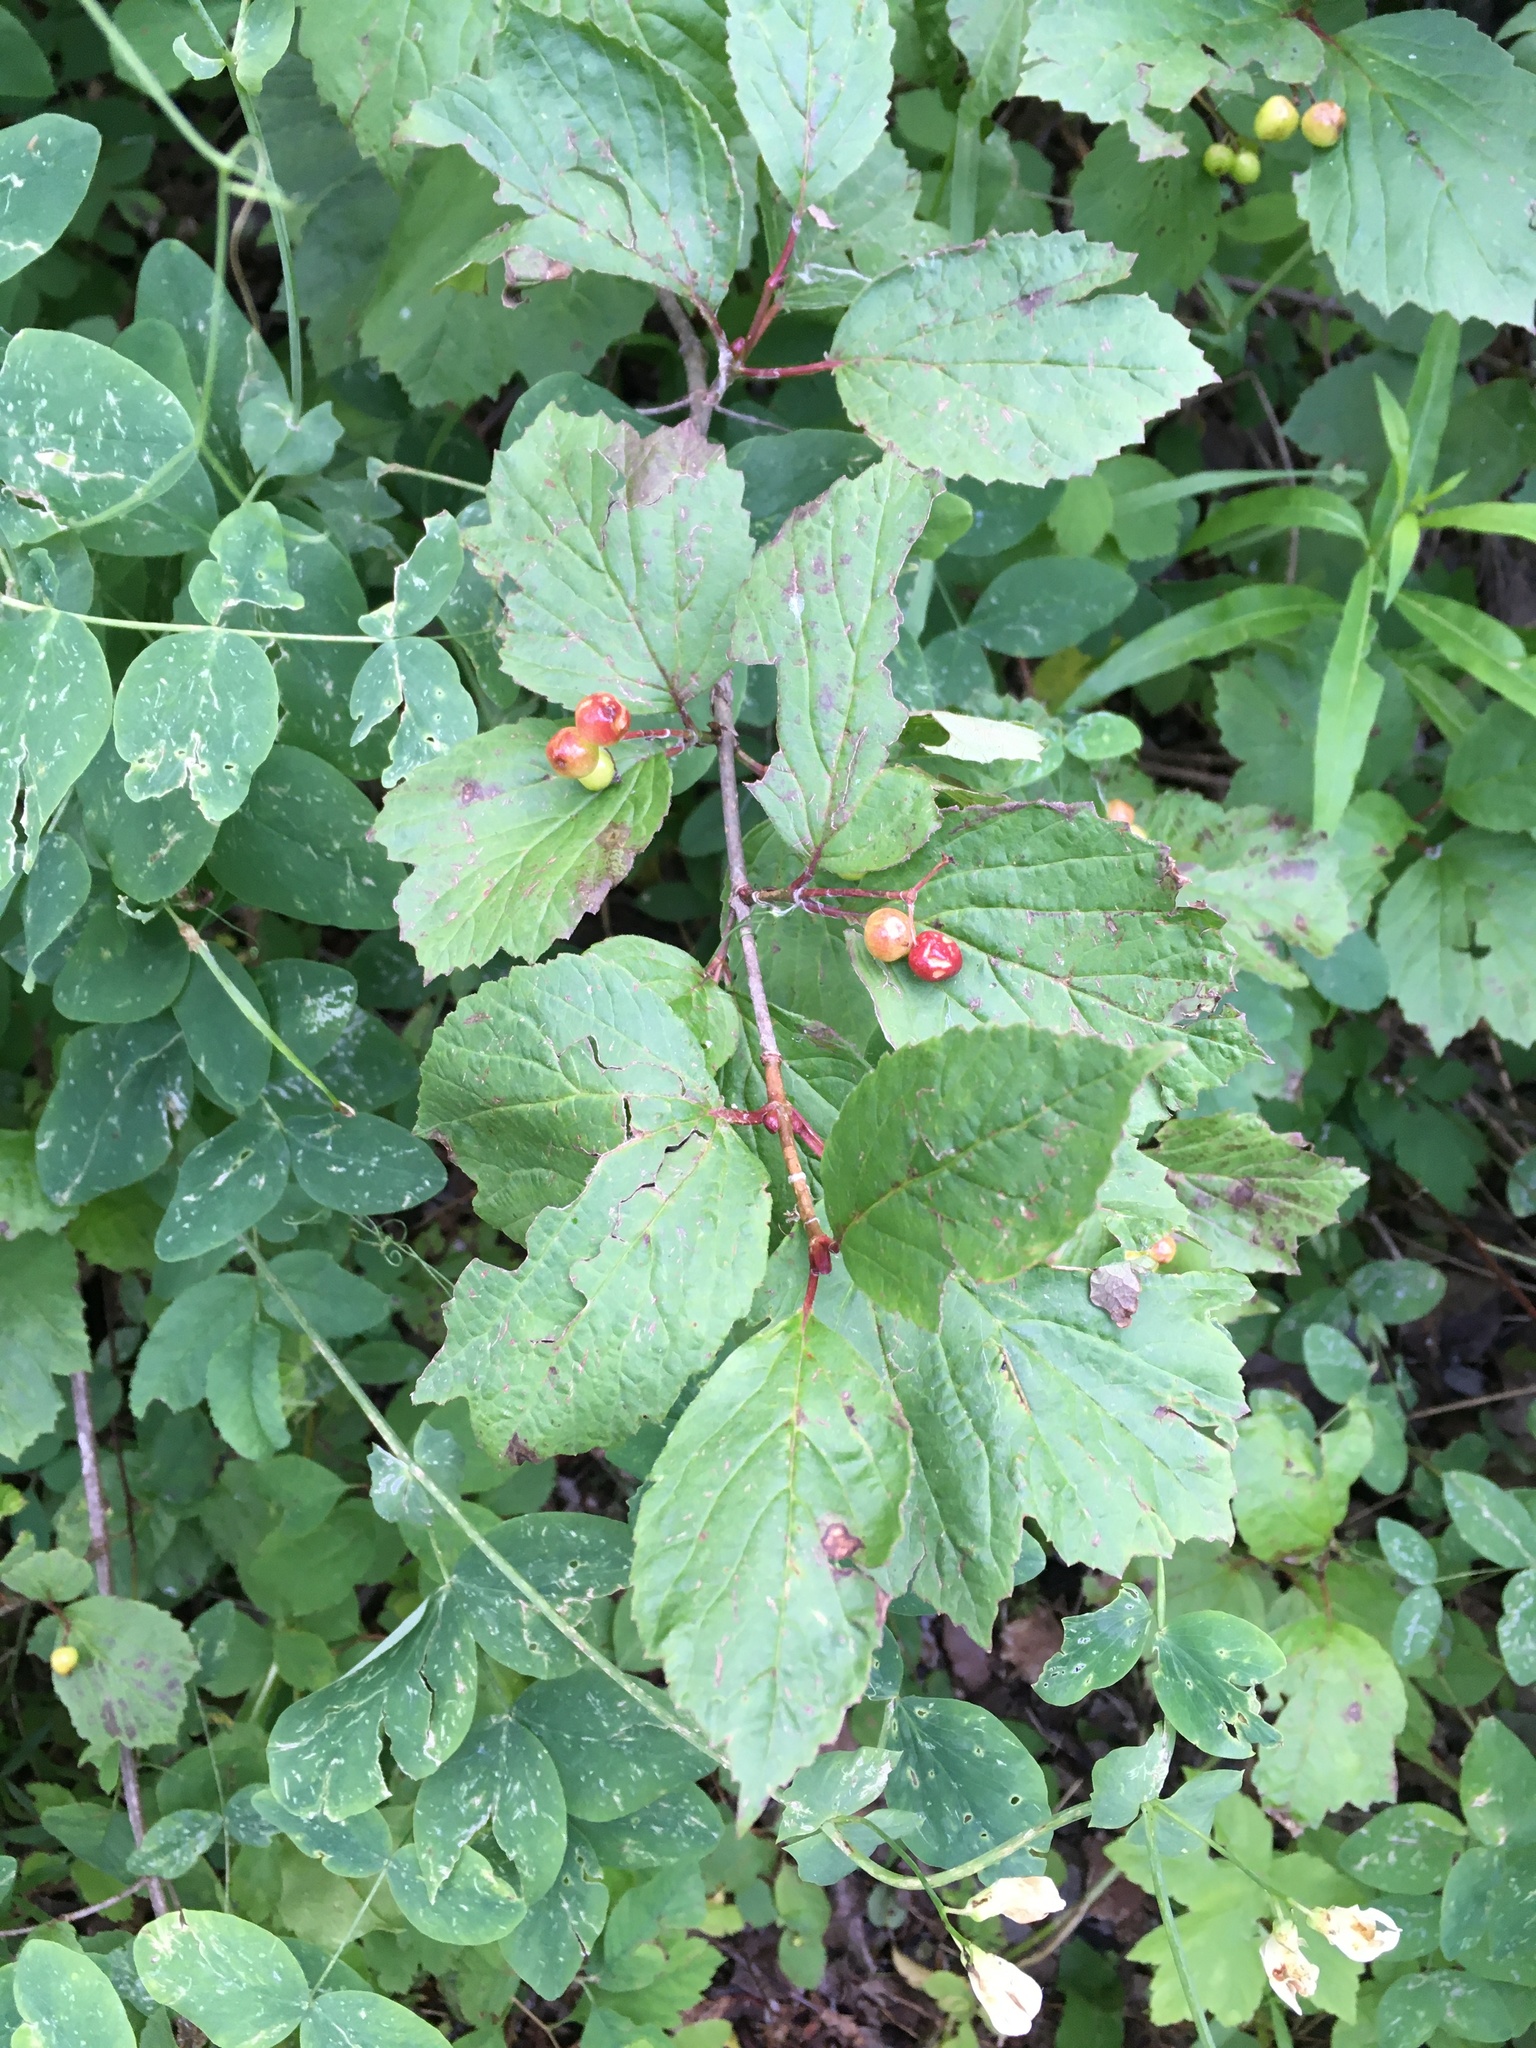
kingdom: Plantae
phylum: Tracheophyta
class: Magnoliopsida
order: Dipsacales
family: Viburnaceae
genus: Viburnum
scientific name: Viburnum edule
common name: Mooseberry
